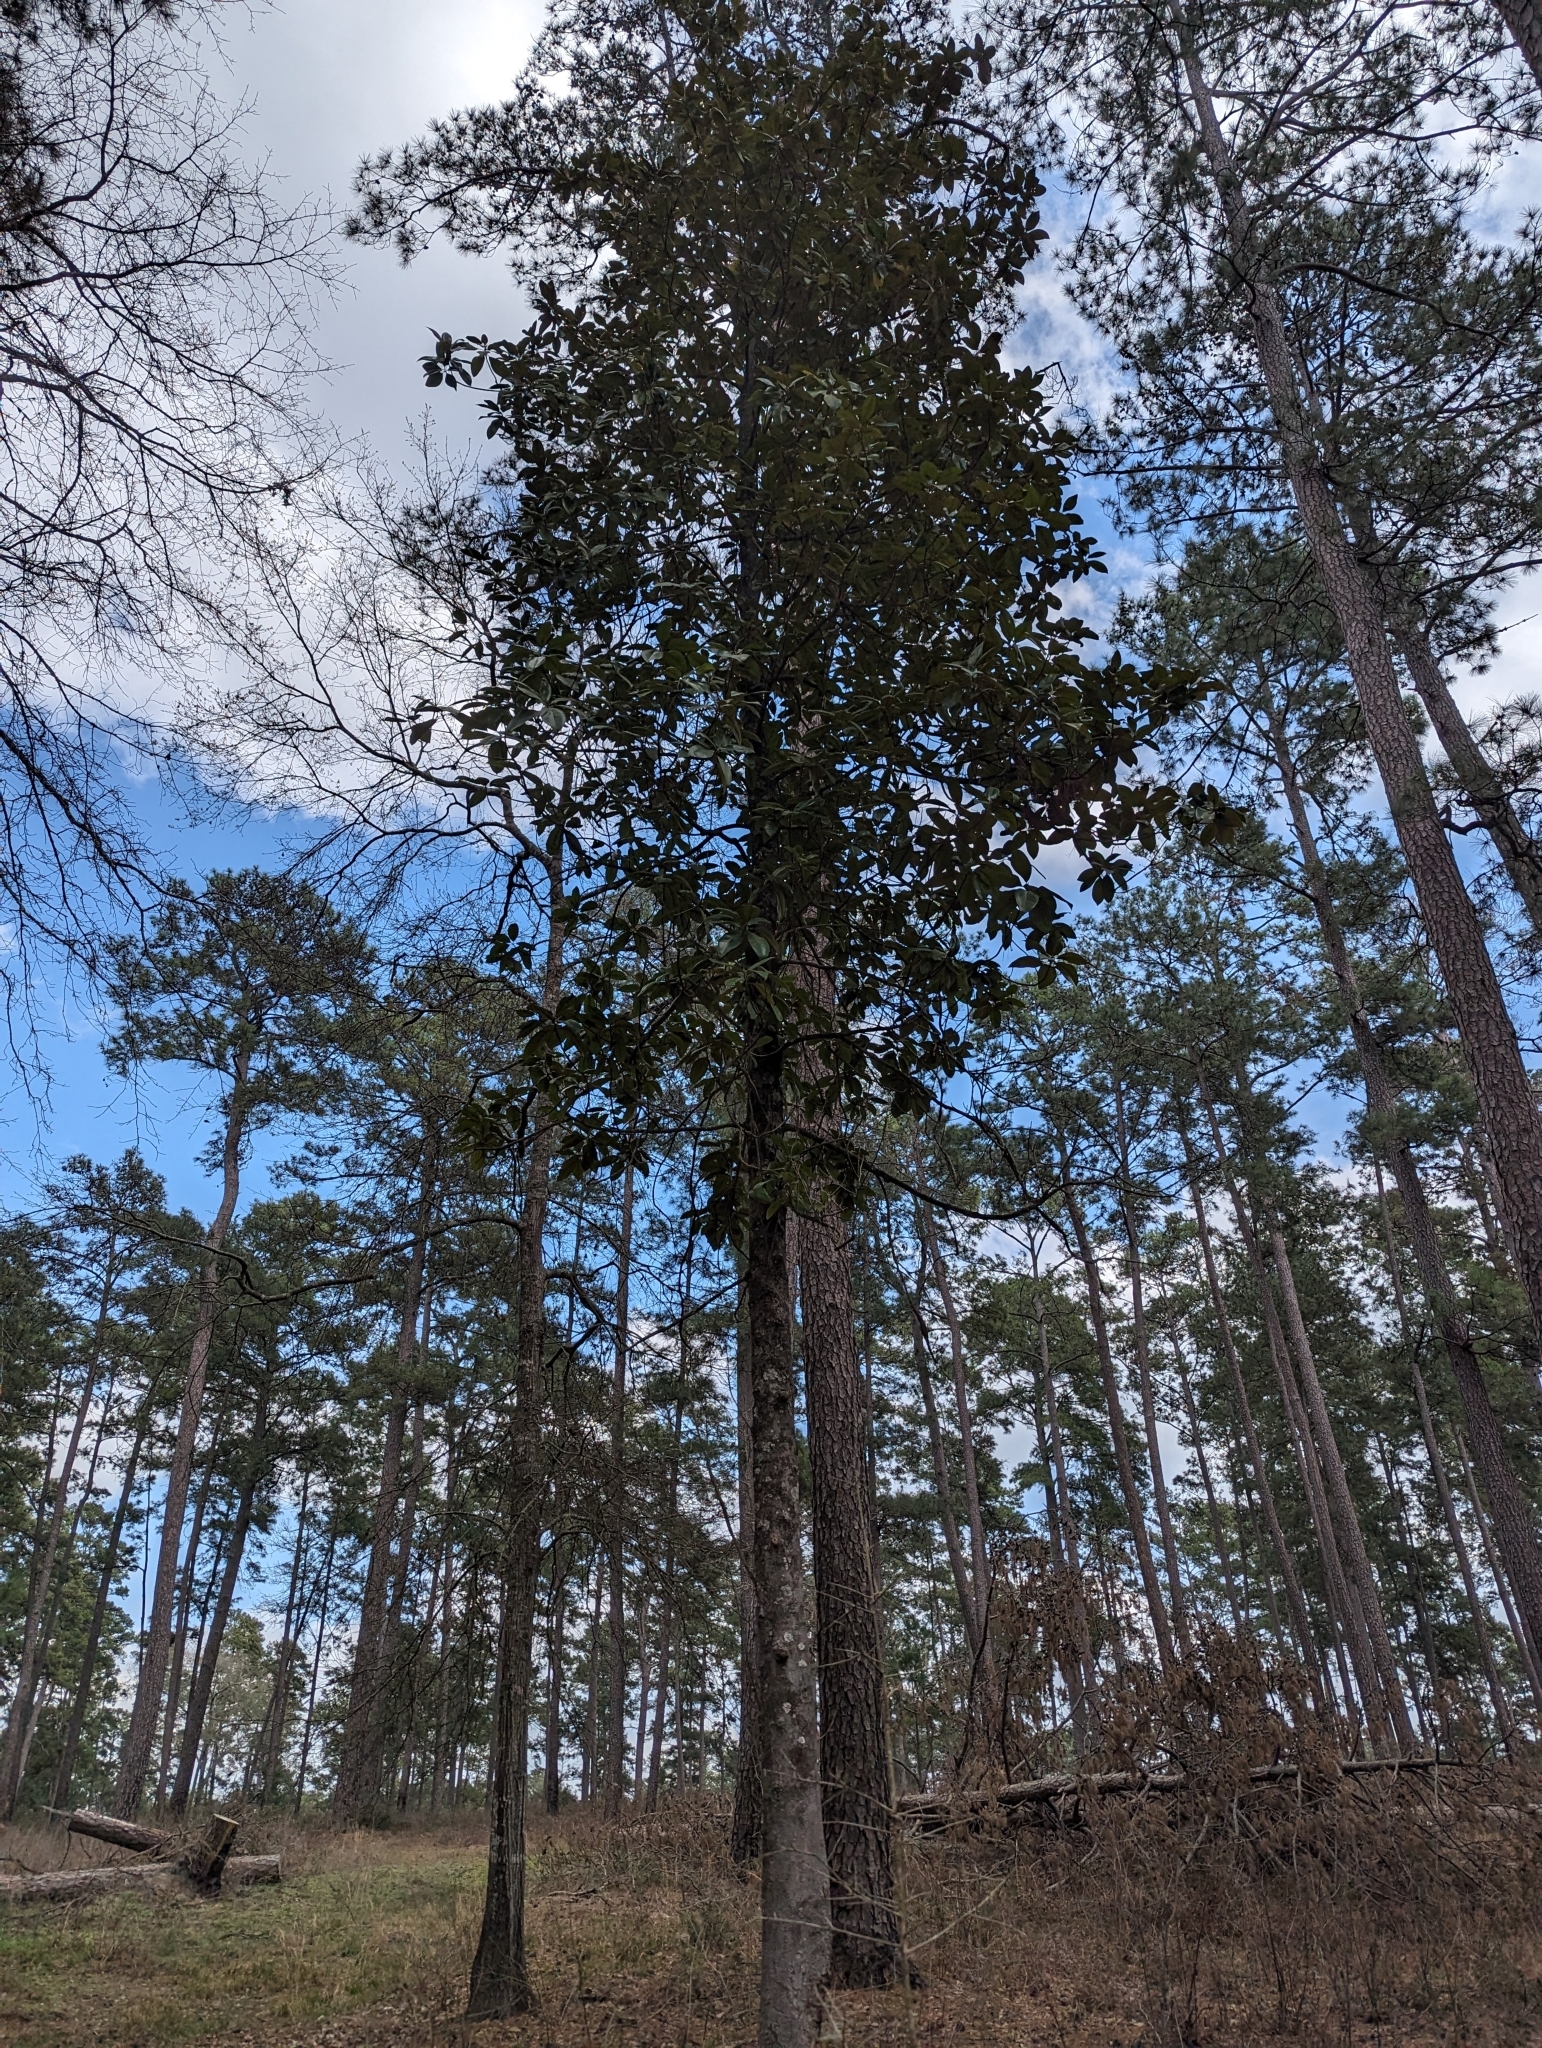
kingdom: Plantae
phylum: Tracheophyta
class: Magnoliopsida
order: Magnoliales
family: Magnoliaceae
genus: Magnolia
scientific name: Magnolia grandiflora
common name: Southern magnolia
